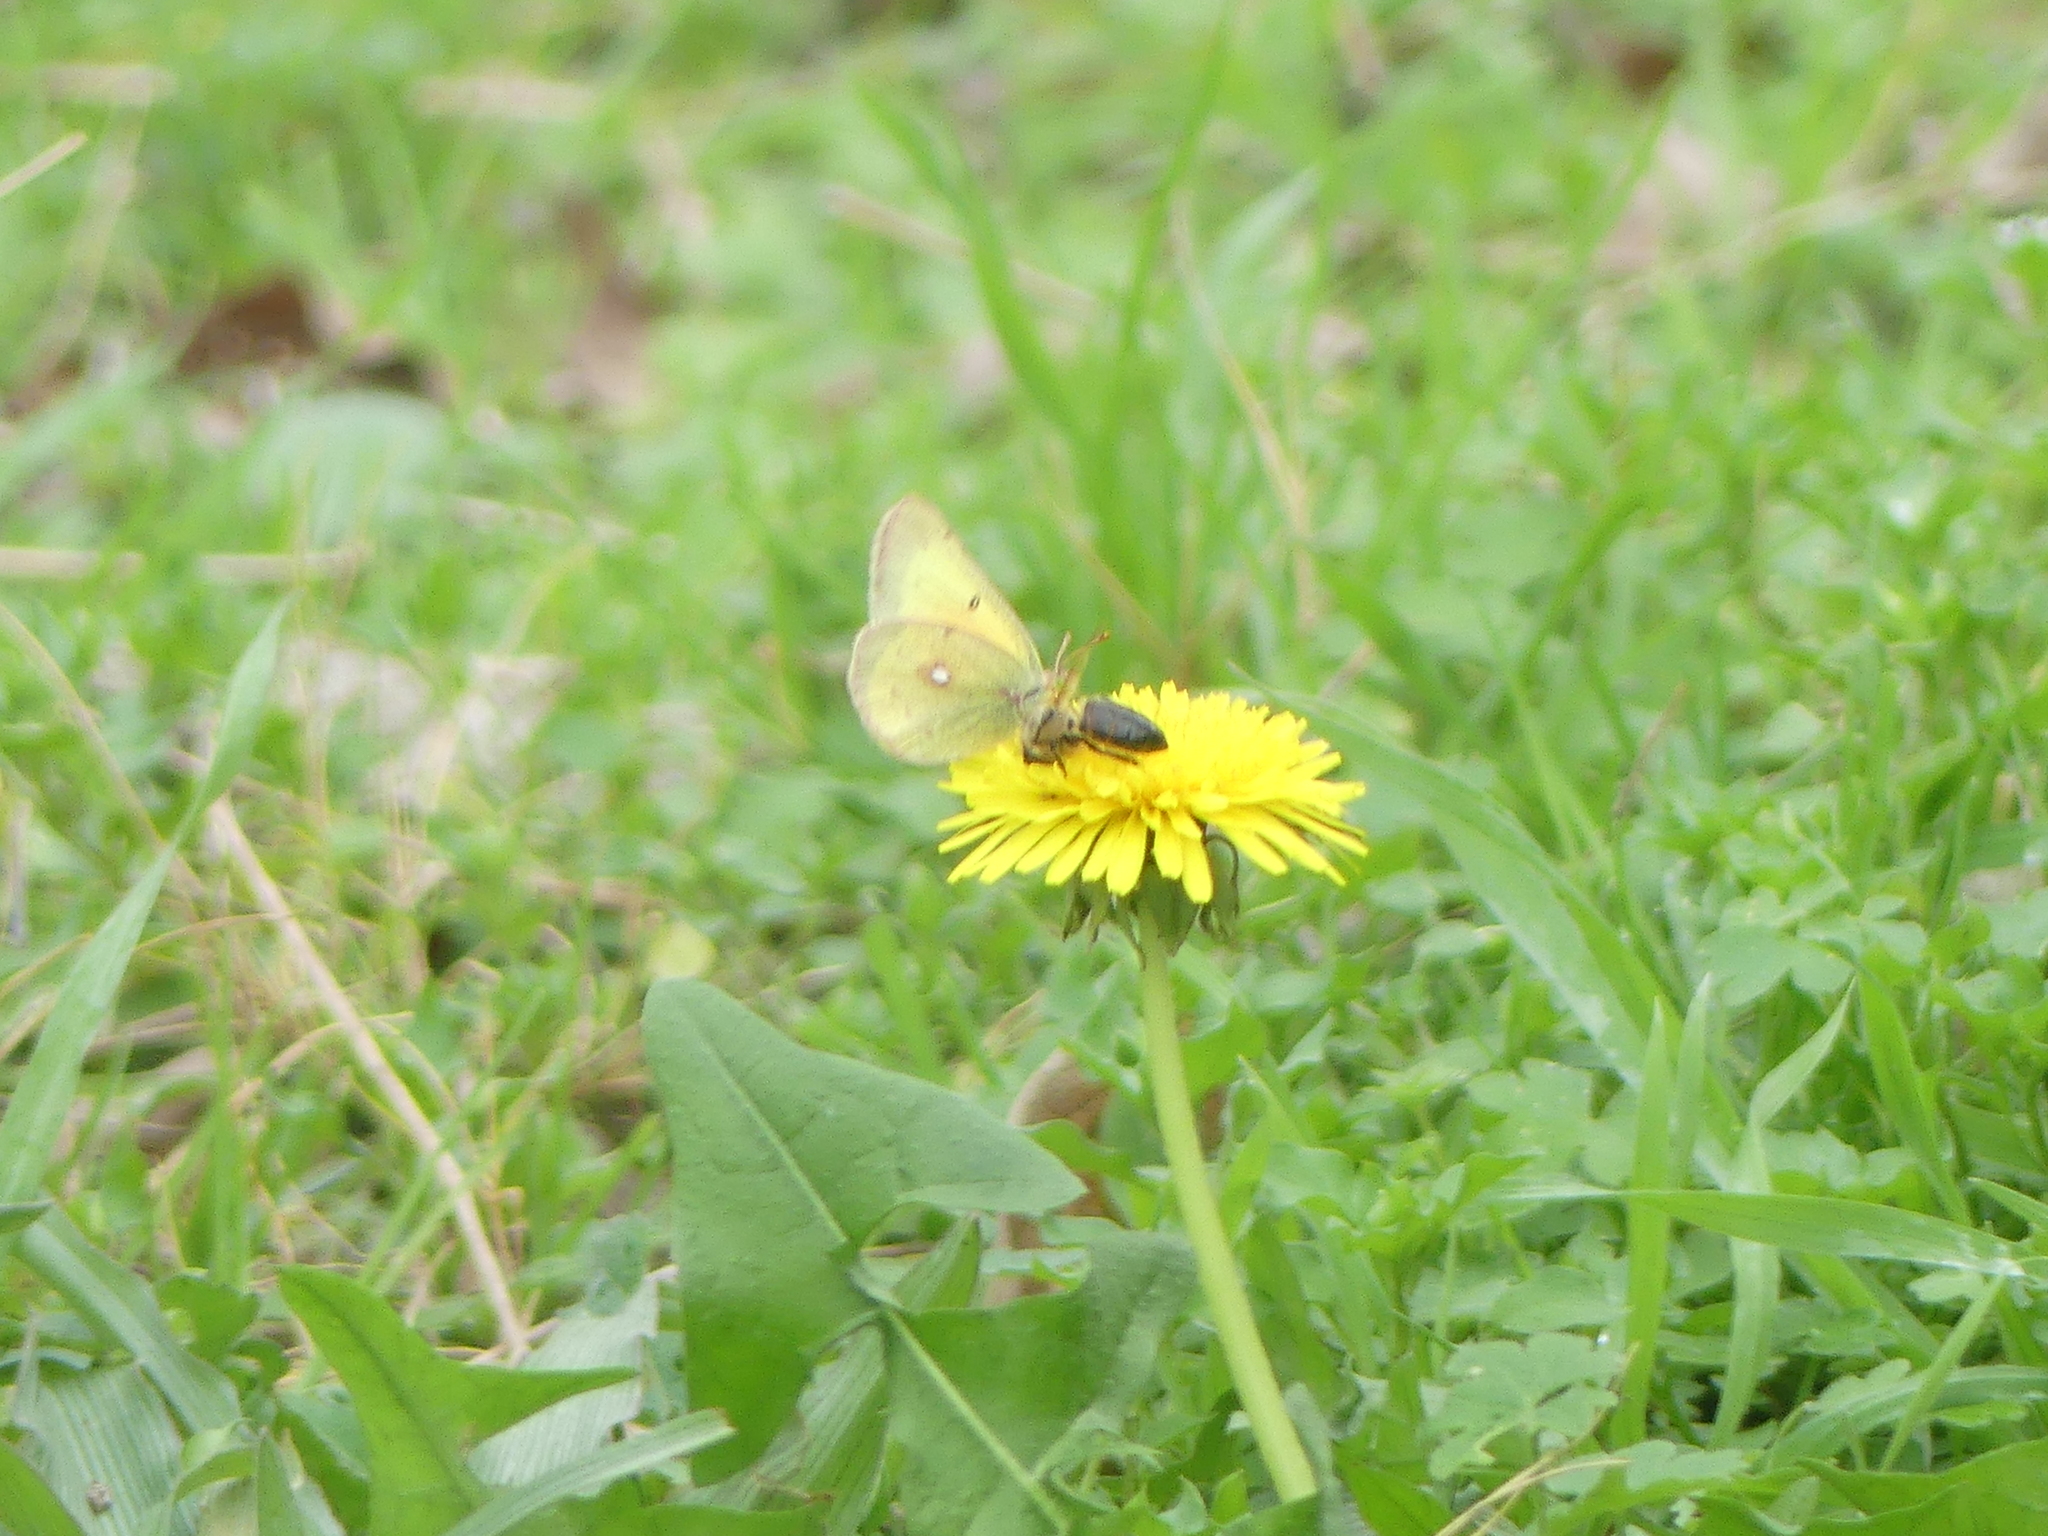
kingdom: Animalia
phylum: Arthropoda
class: Insecta
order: Lepidoptera
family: Pieridae
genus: Colias
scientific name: Colias eurytheme
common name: Alfalfa butterfly
